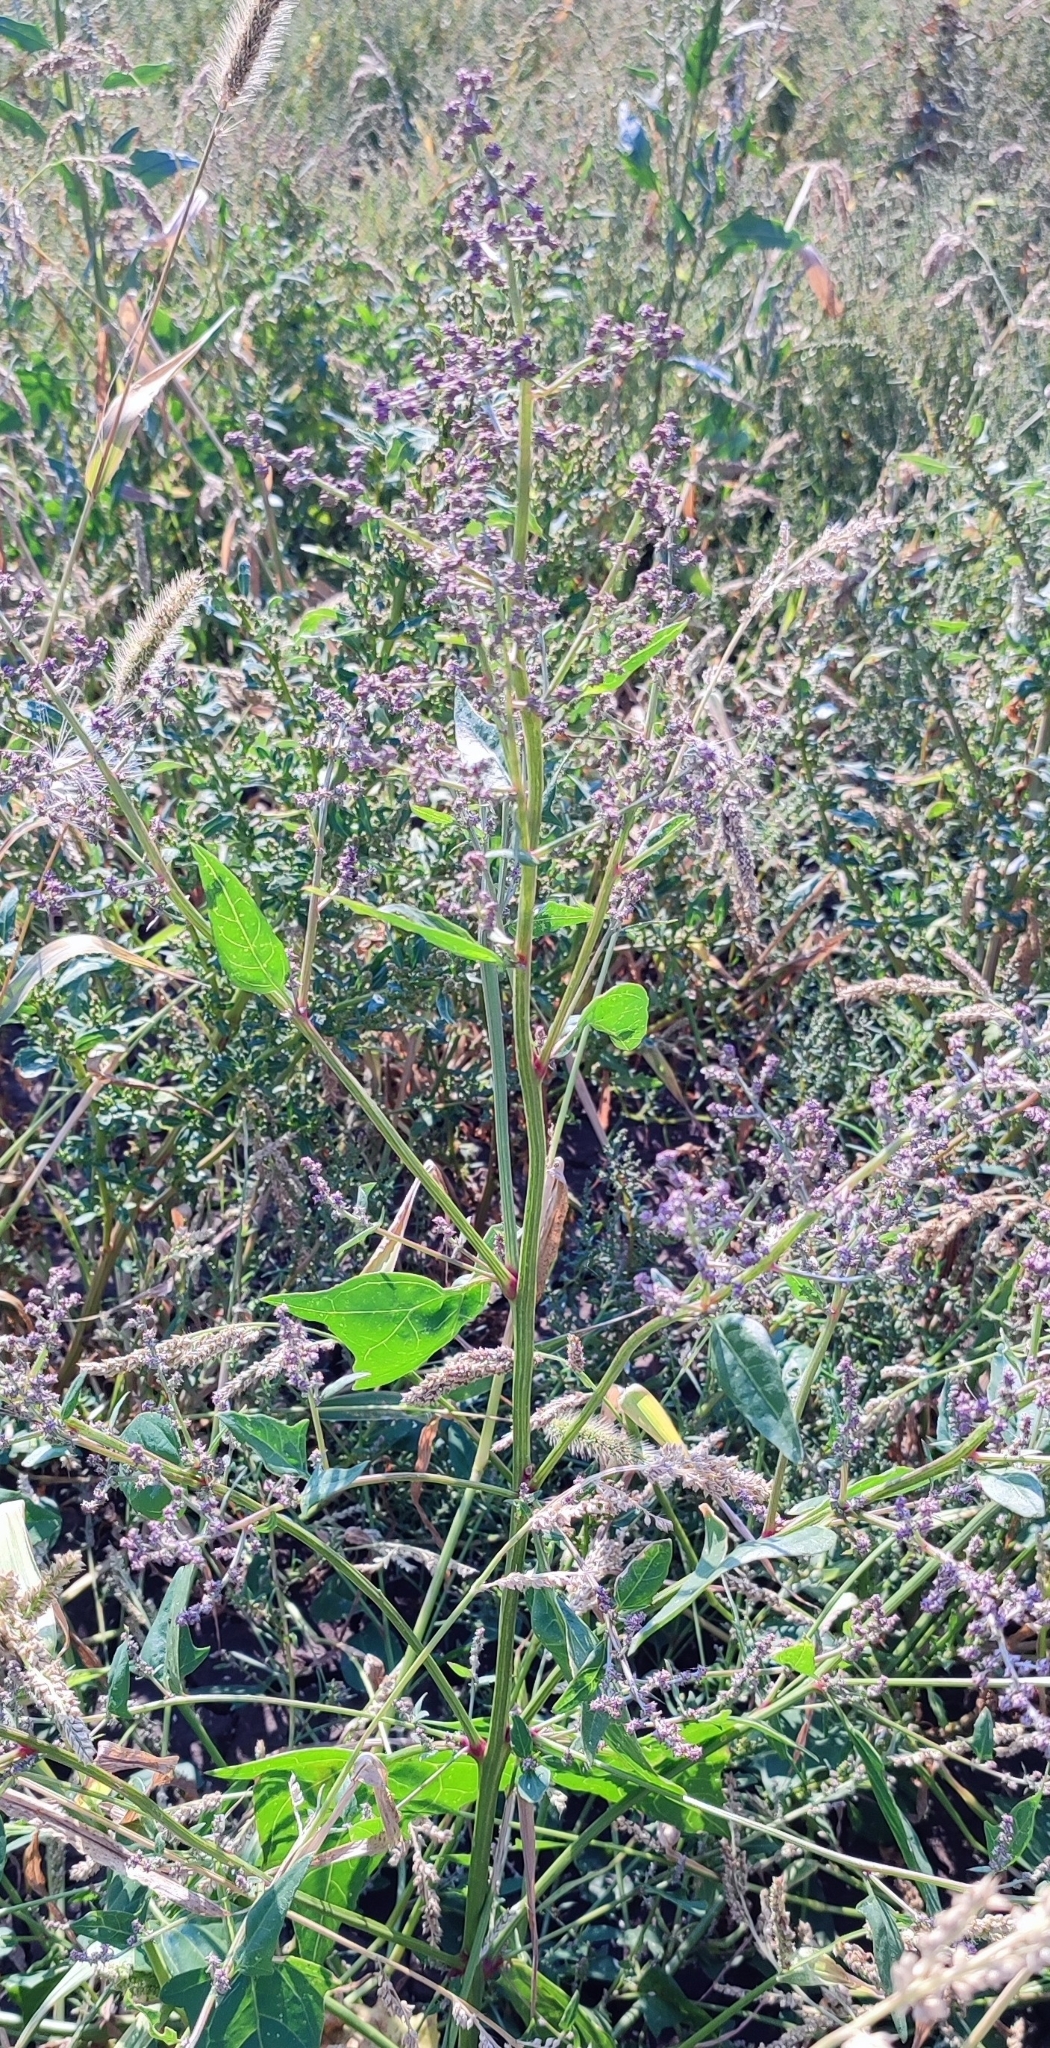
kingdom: Plantae
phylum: Tracheophyta
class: Magnoliopsida
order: Caryophyllales
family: Amaranthaceae
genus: Atriplex
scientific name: Atriplex prostrata
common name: Spear-leaved orache
